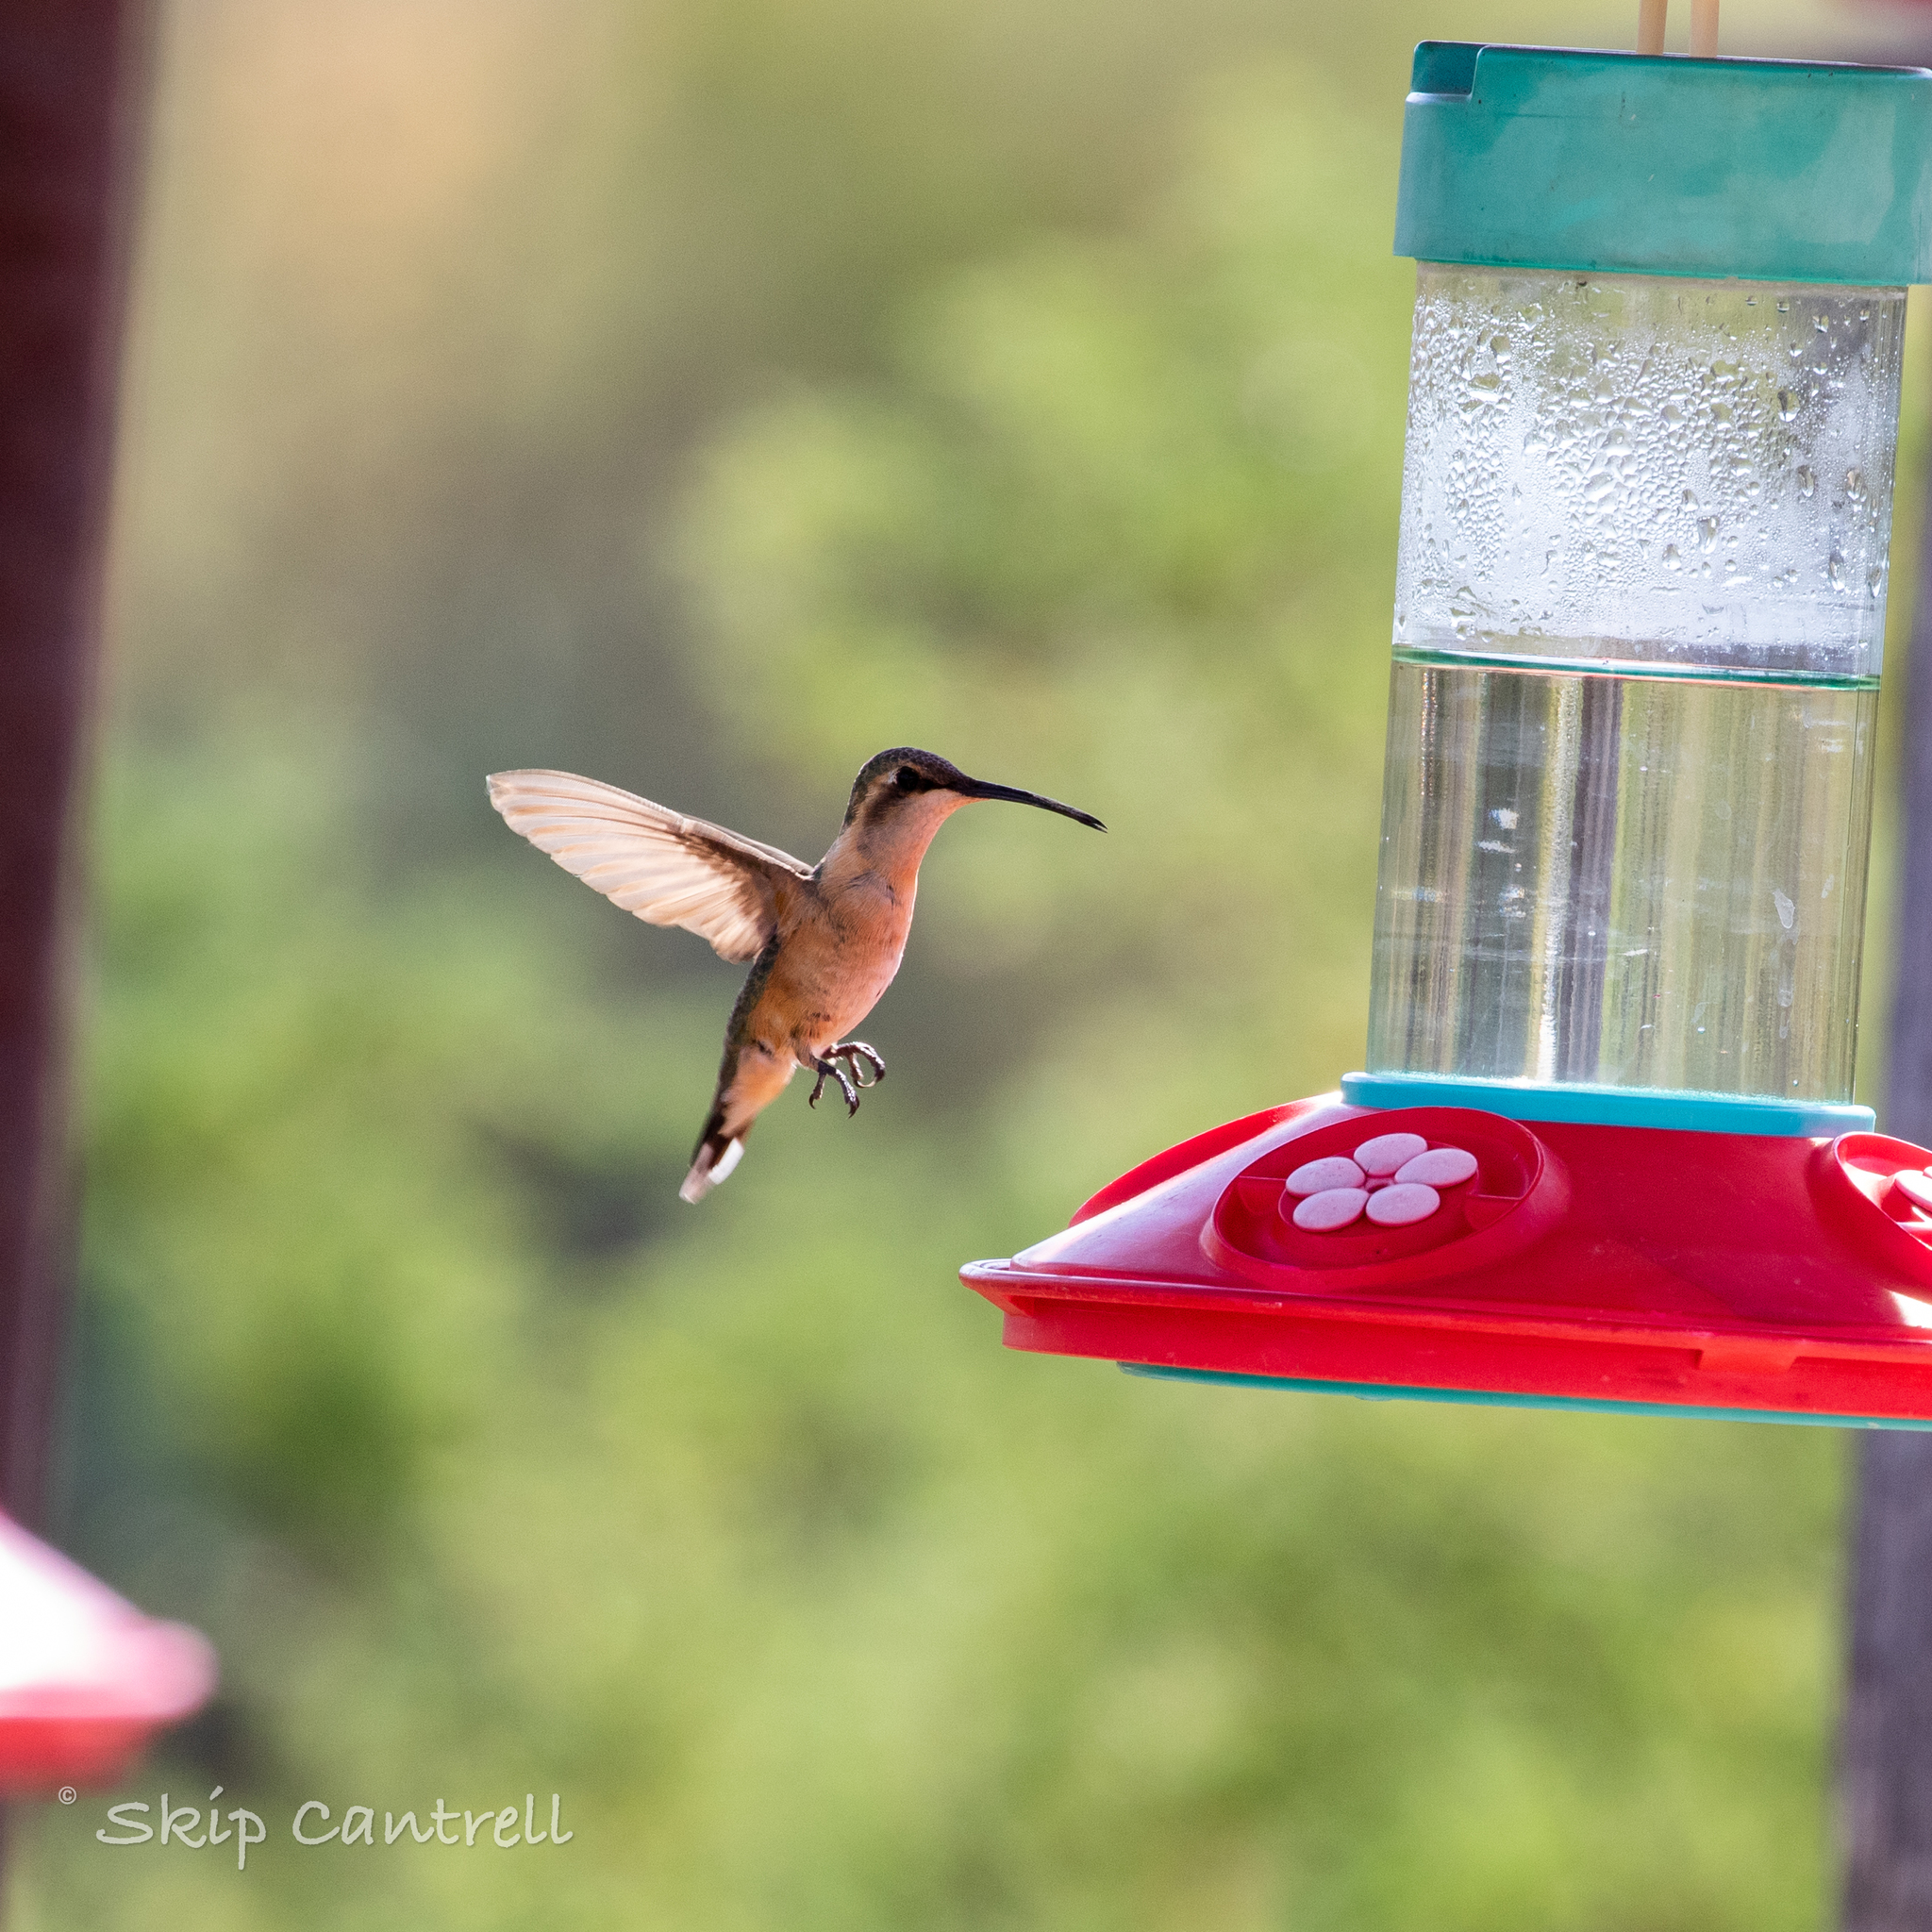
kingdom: Animalia
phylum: Chordata
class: Aves
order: Apodiformes
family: Trochilidae
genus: Calothorax
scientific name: Calothorax lucifer
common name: Lucifer sheartail
